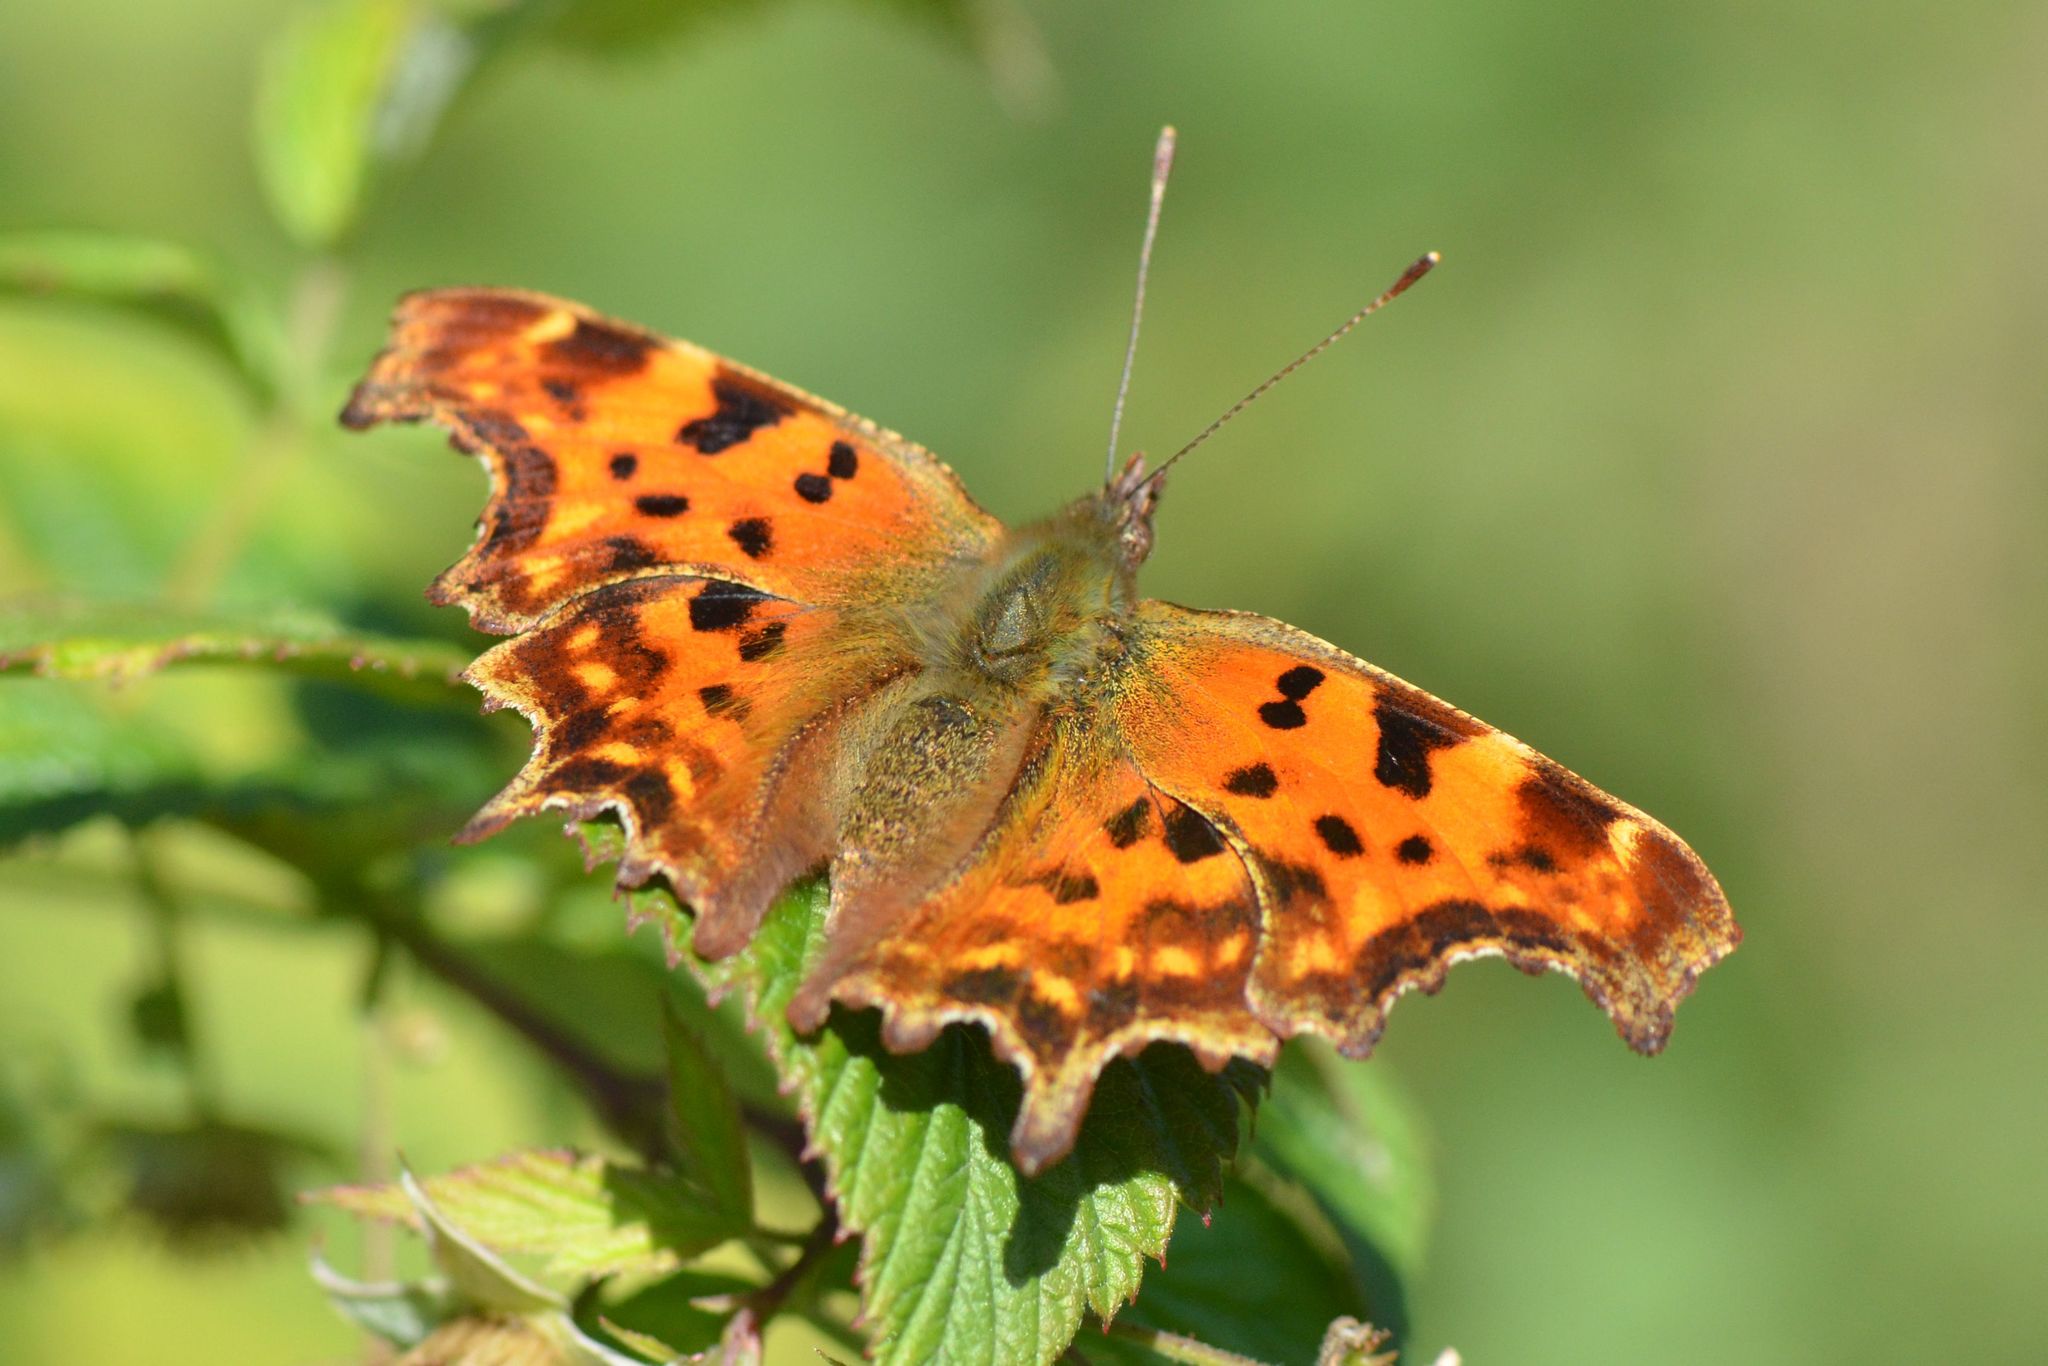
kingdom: Animalia
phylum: Arthropoda
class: Insecta
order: Lepidoptera
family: Nymphalidae
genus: Polygonia
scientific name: Polygonia c-album
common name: Comma
